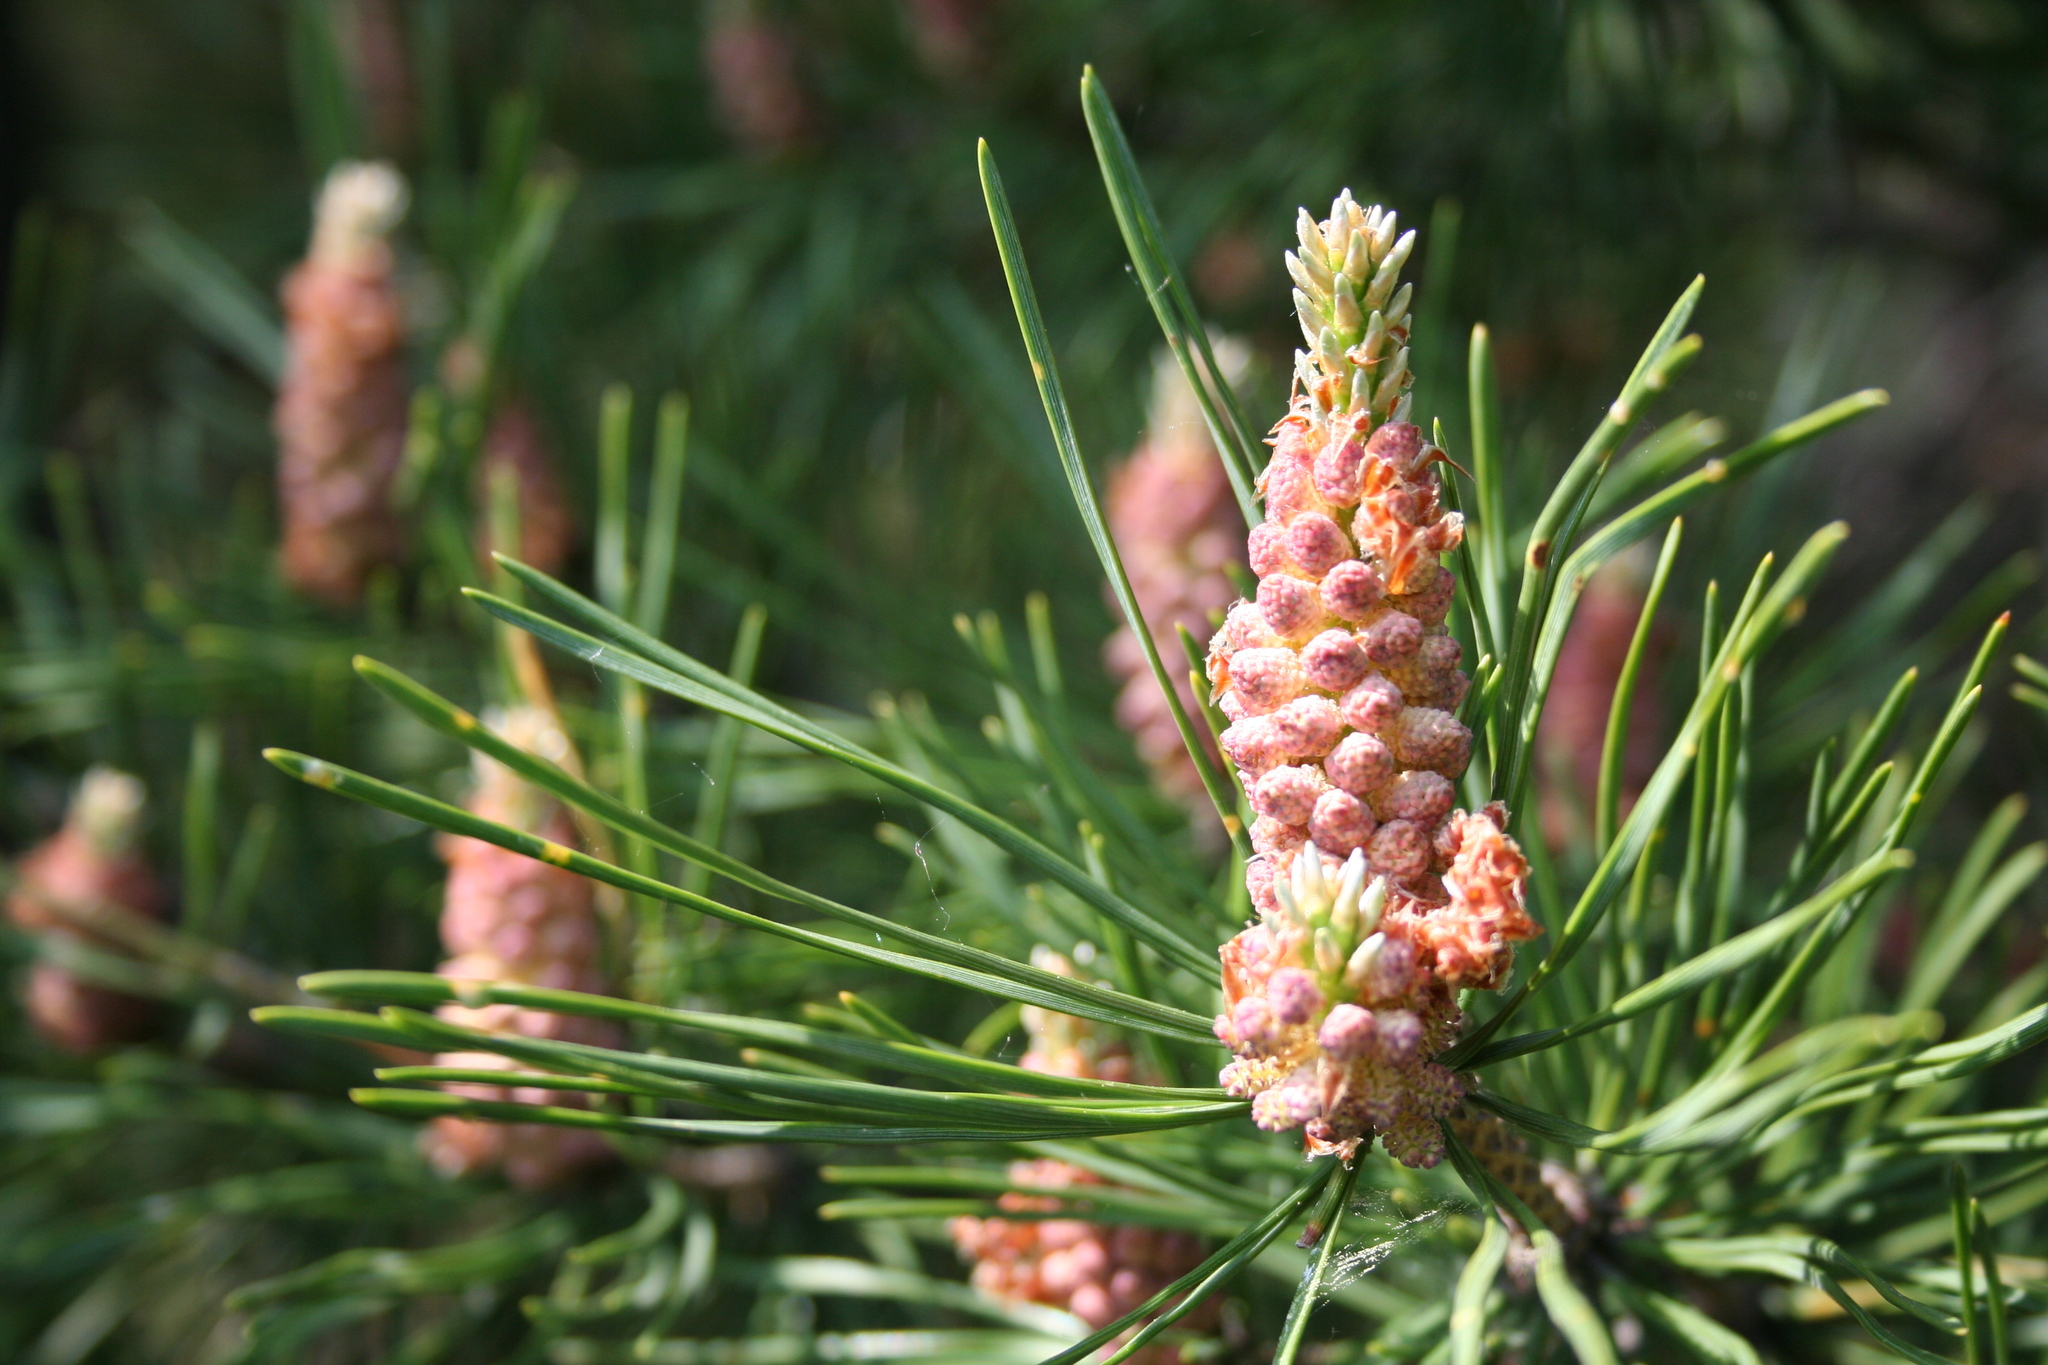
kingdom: Plantae
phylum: Tracheophyta
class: Pinopsida
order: Pinales
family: Pinaceae
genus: Pinus
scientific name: Pinus sylvestris
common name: Scots pine
